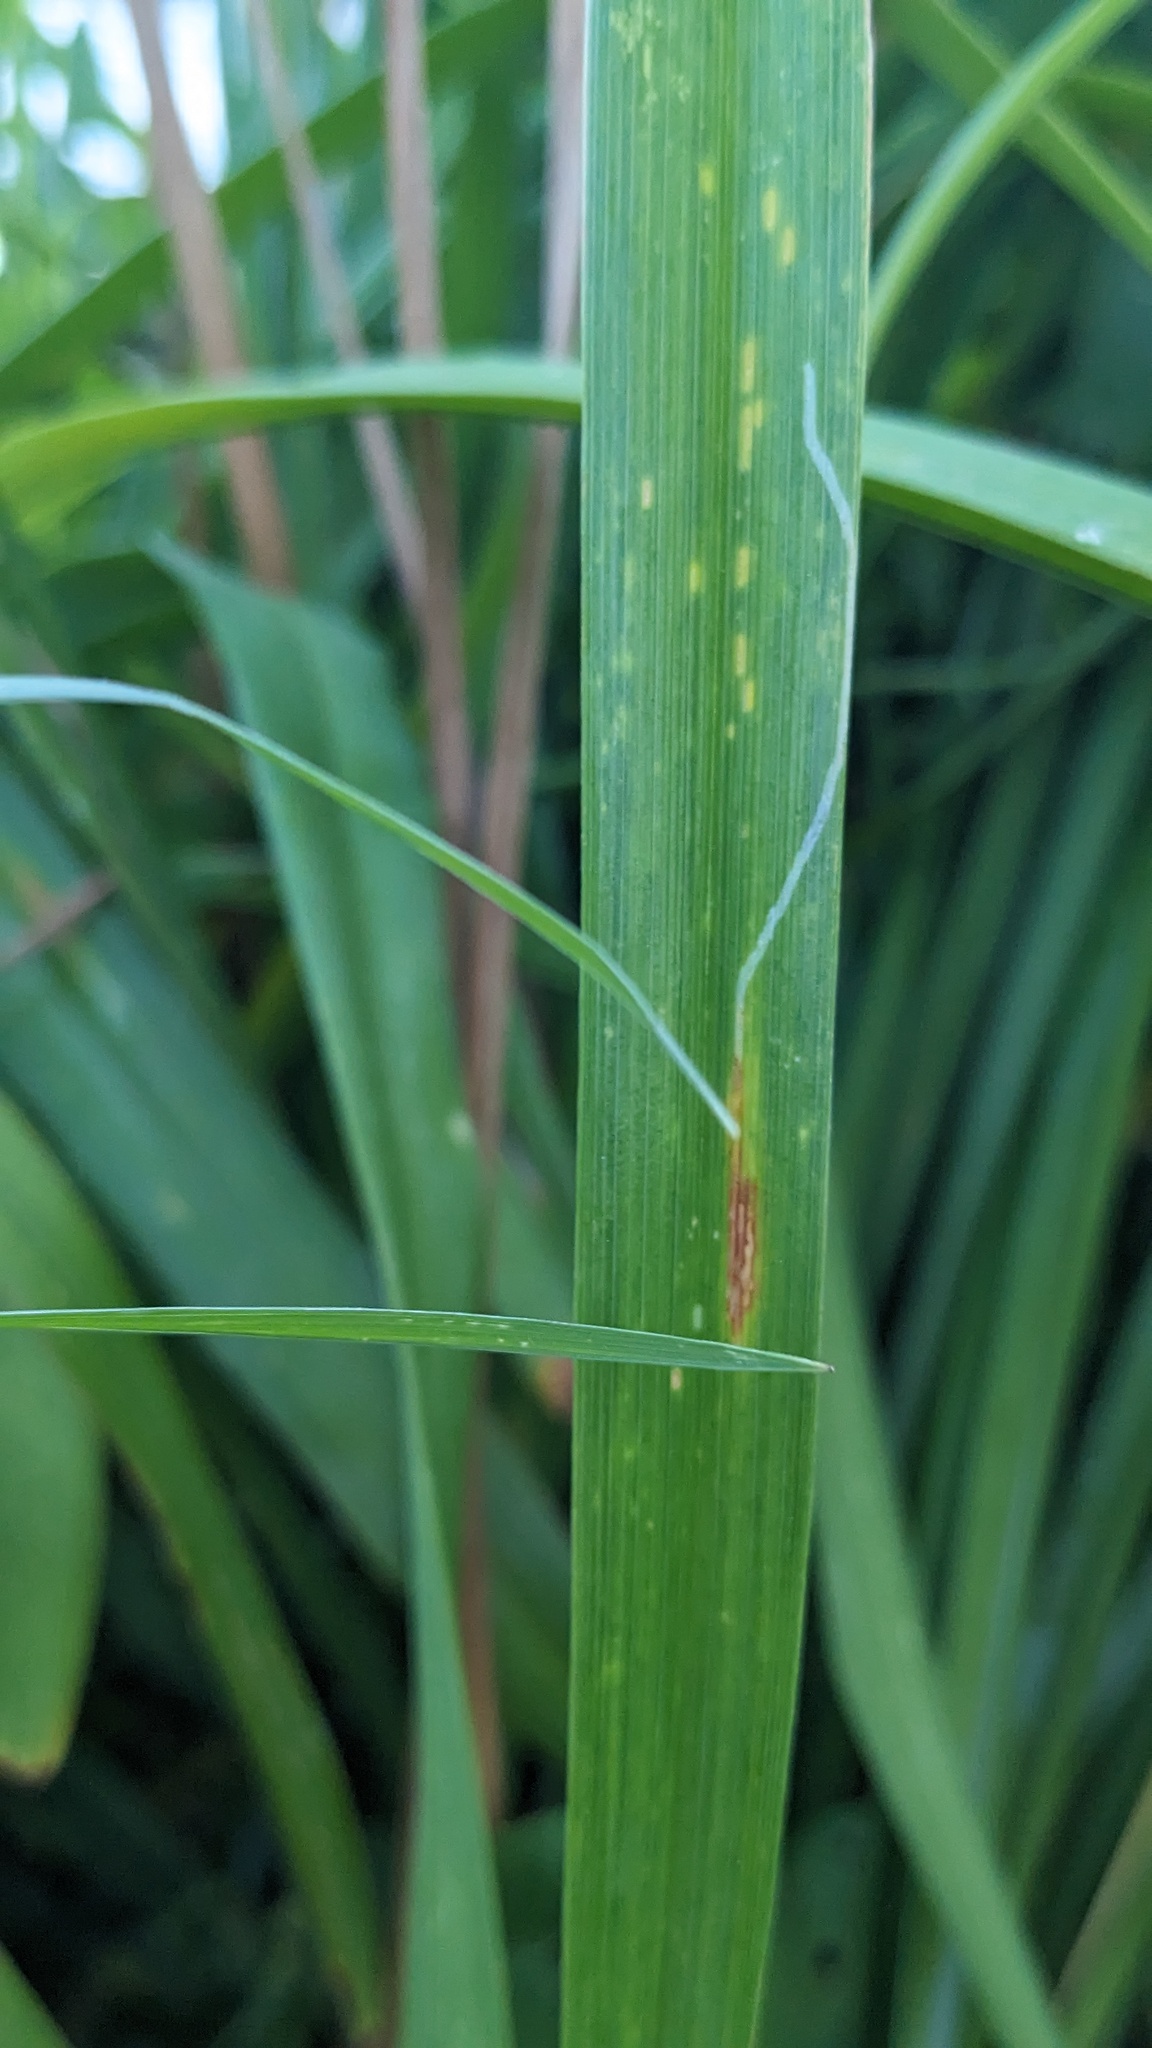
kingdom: Animalia
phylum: Arthropoda
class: Insecta
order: Diptera
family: Agromyzidae
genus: Ophiomyia
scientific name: Ophiomyia kwansonis
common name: Daylily leafminer
